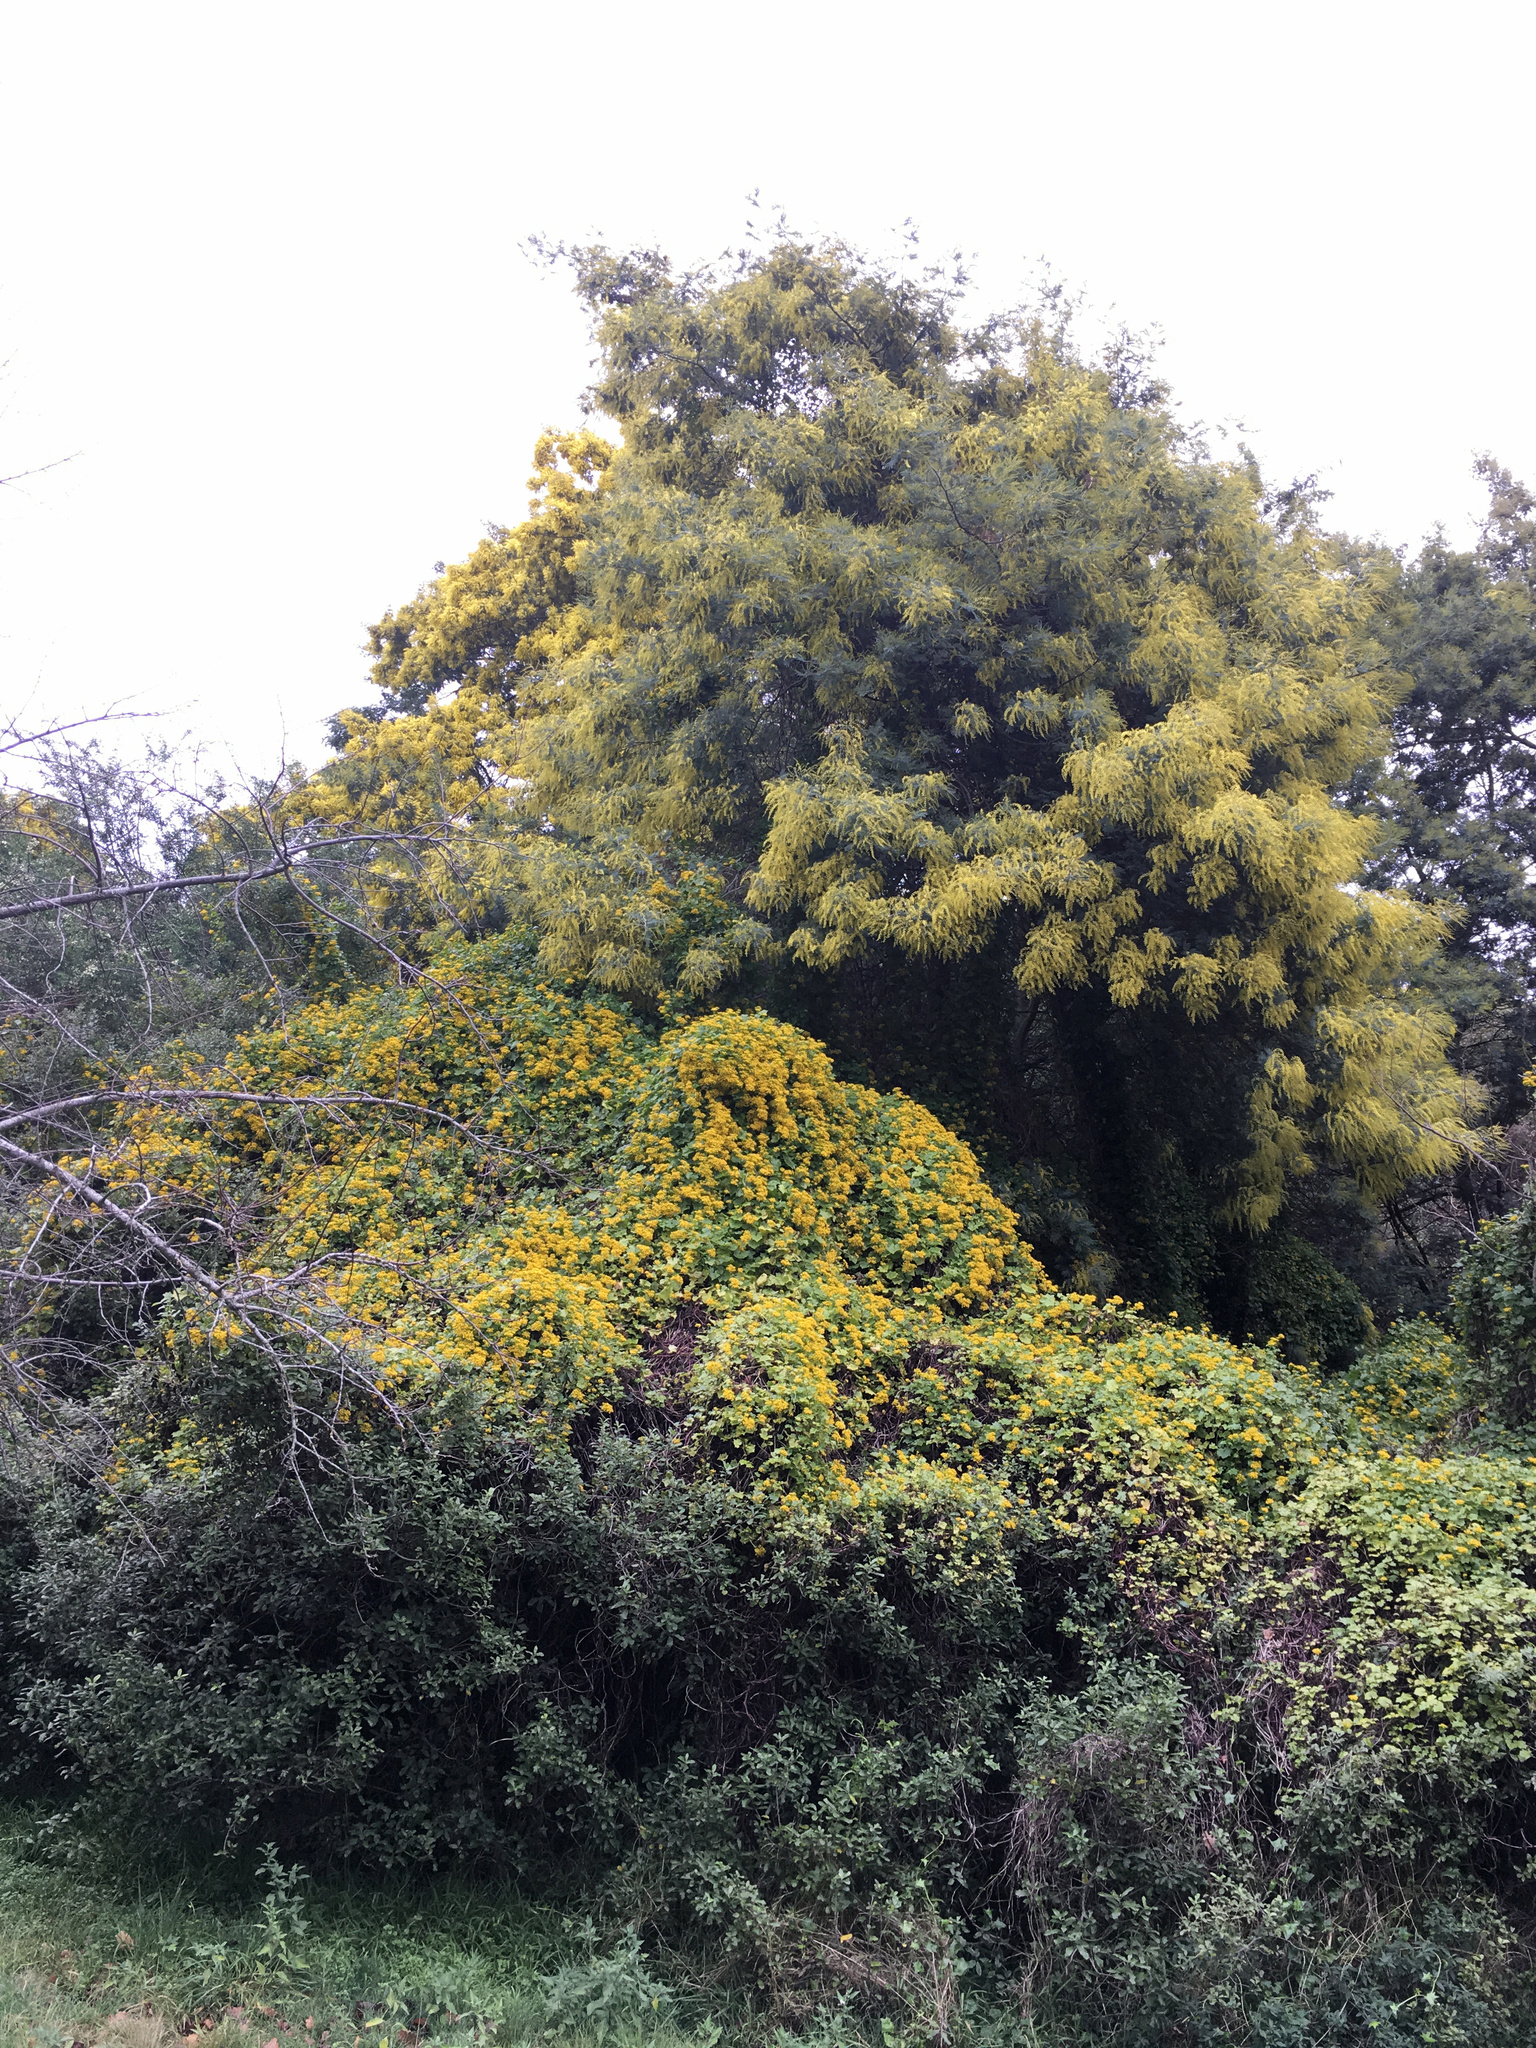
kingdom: Plantae
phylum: Tracheophyta
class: Magnoliopsida
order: Fabales
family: Fabaceae
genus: Acacia
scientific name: Acacia dealbata
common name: Silver wattle
